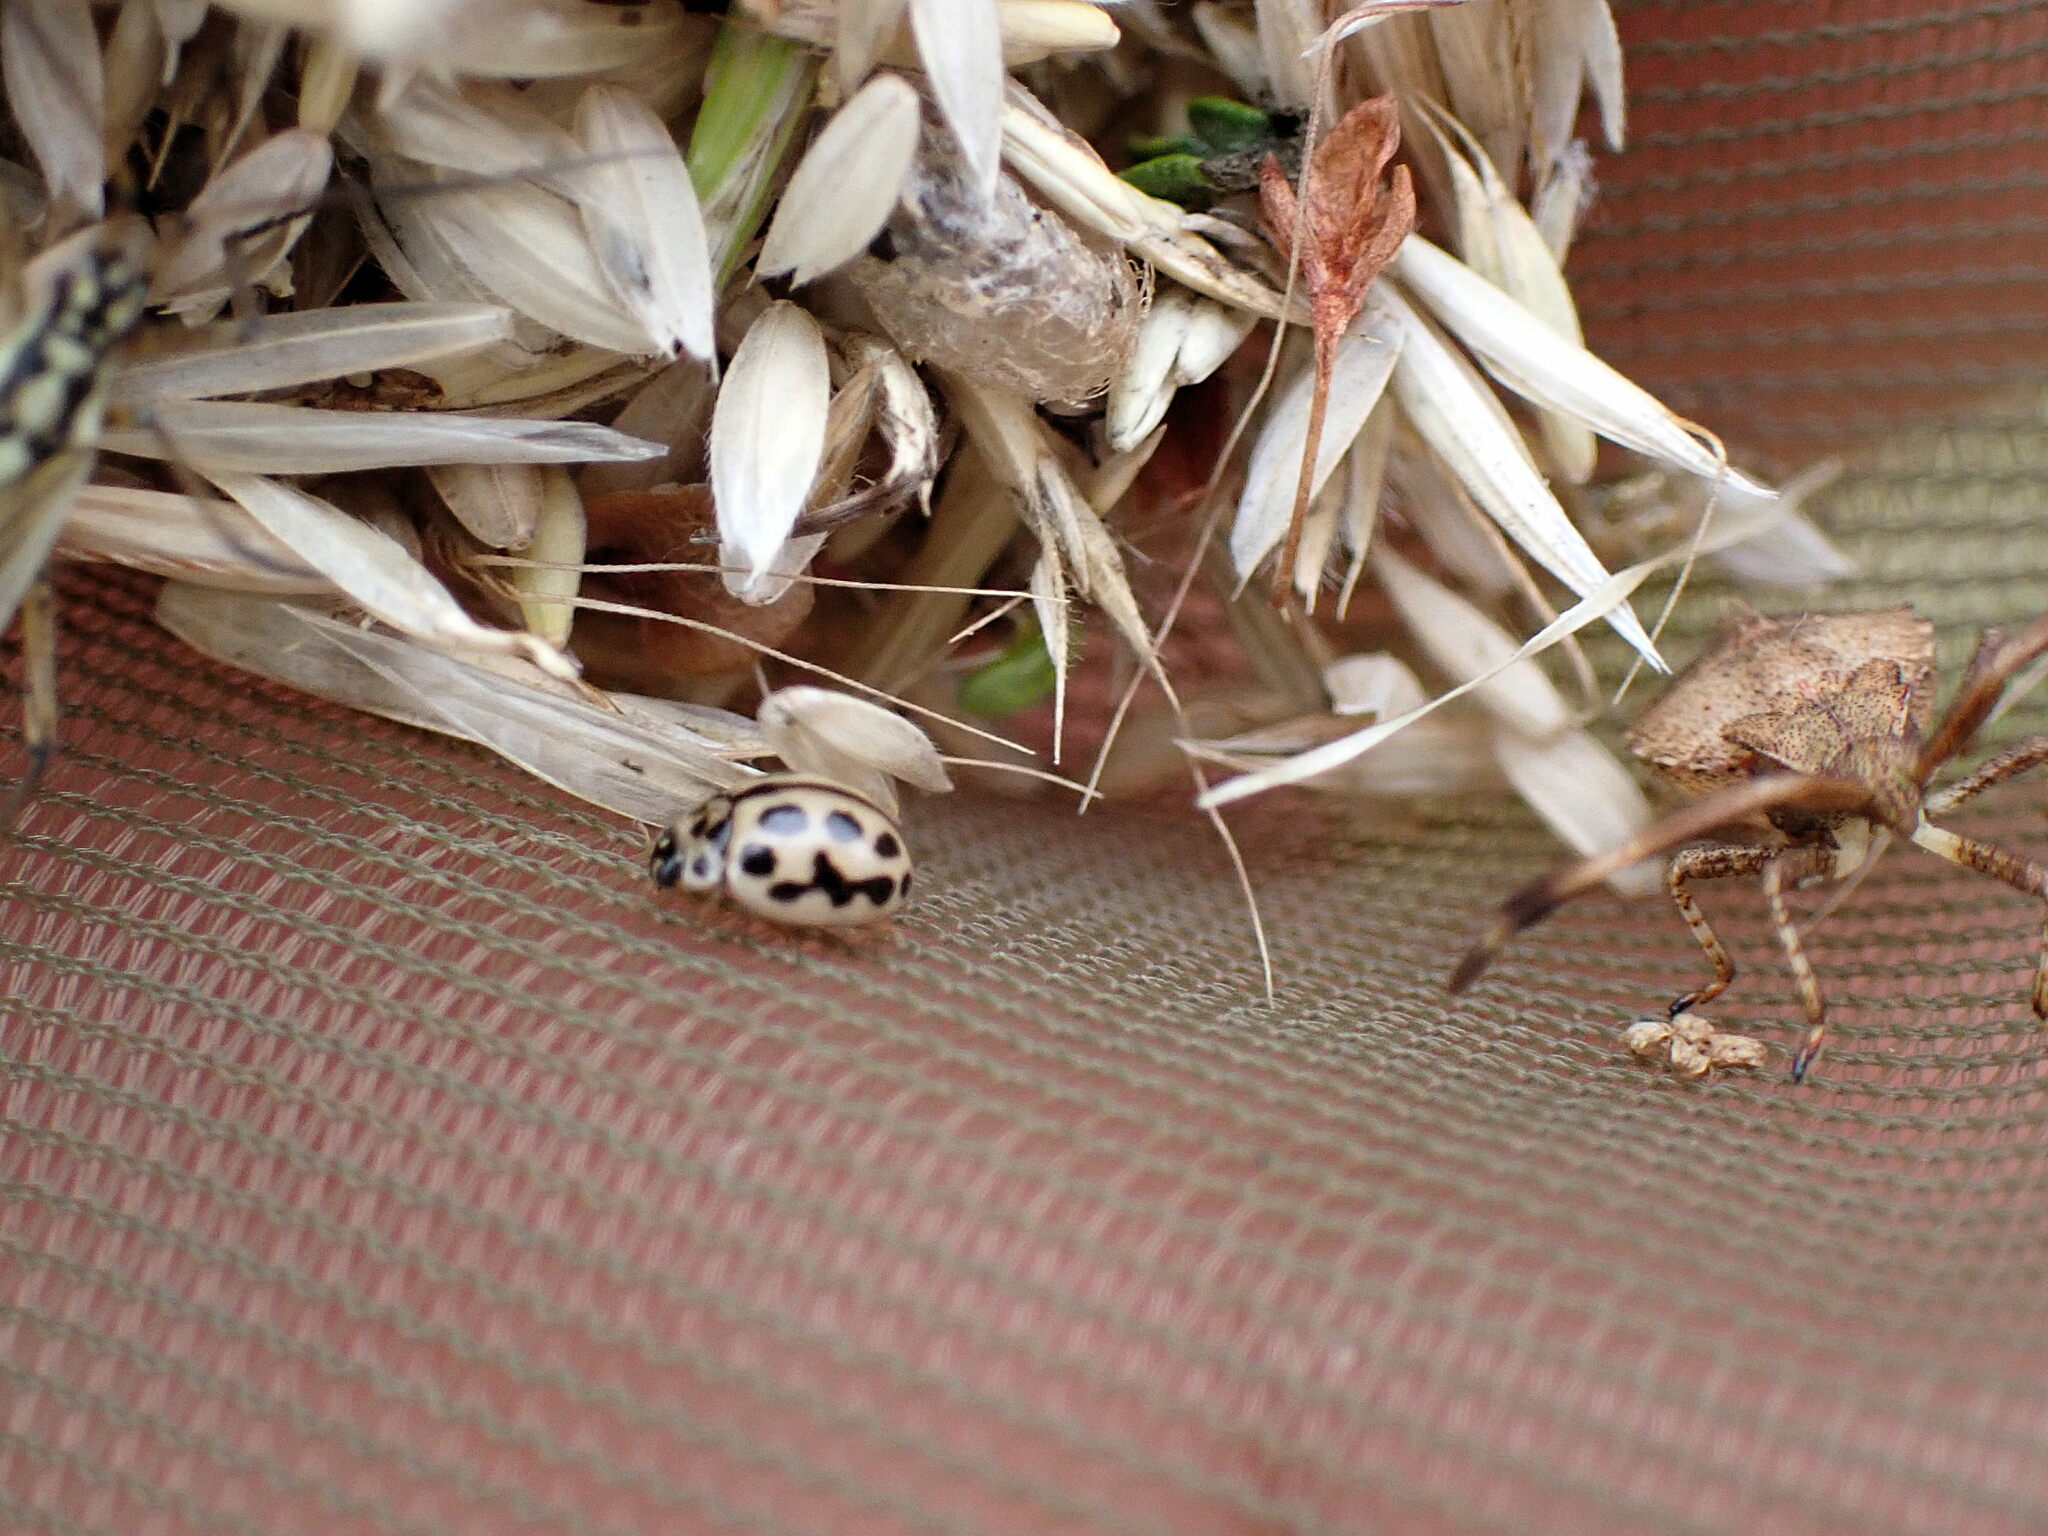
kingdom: Animalia
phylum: Arthropoda
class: Insecta
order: Coleoptera
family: Coccinellidae
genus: Tytthaspis
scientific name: Tytthaspis sedecimpunctata
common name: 16-spot ladybird
